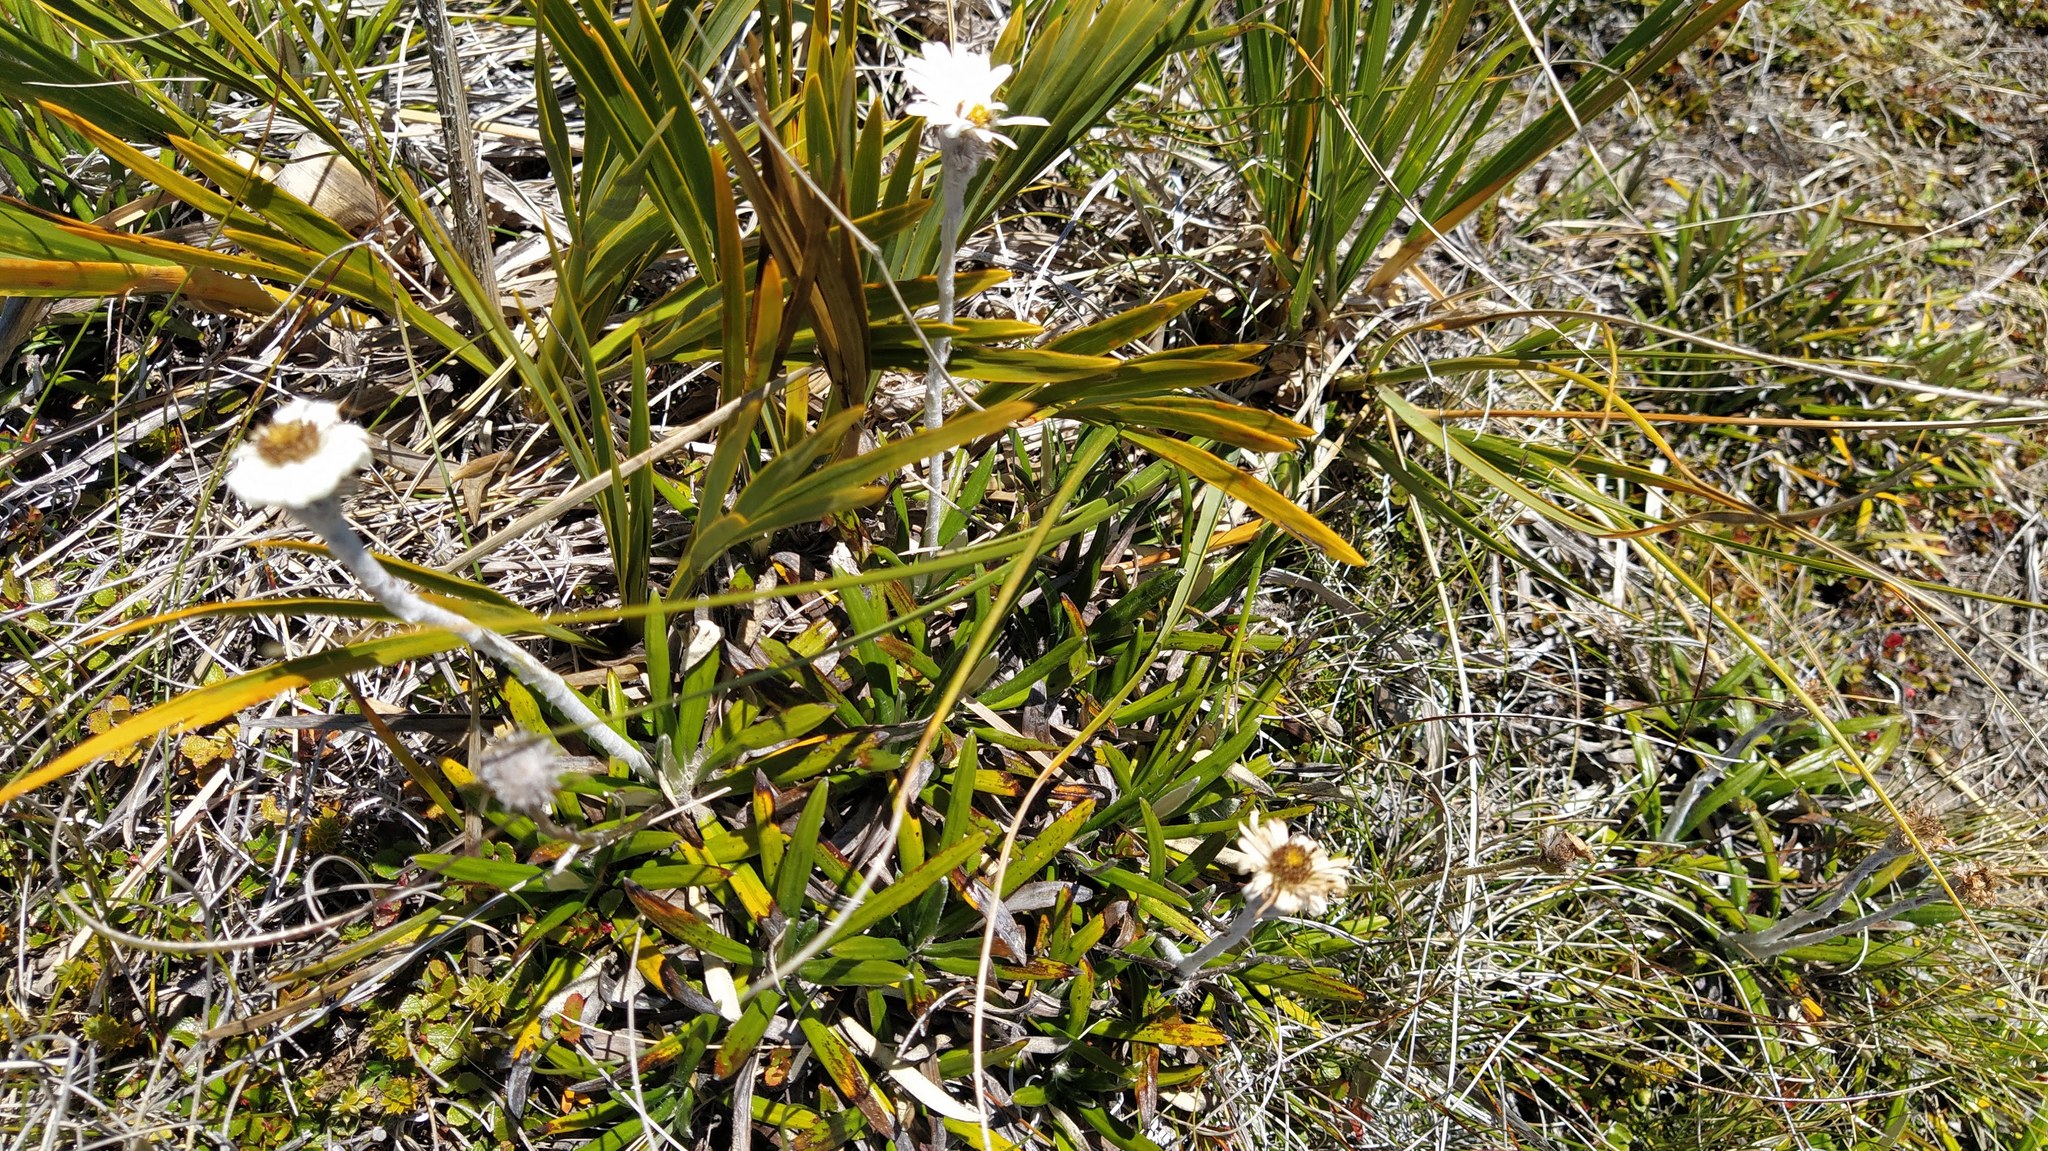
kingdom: Plantae
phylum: Tracheophyta
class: Magnoliopsida
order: Asterales
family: Asteraceae
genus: Celmisia
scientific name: Celmisia spectabilis
